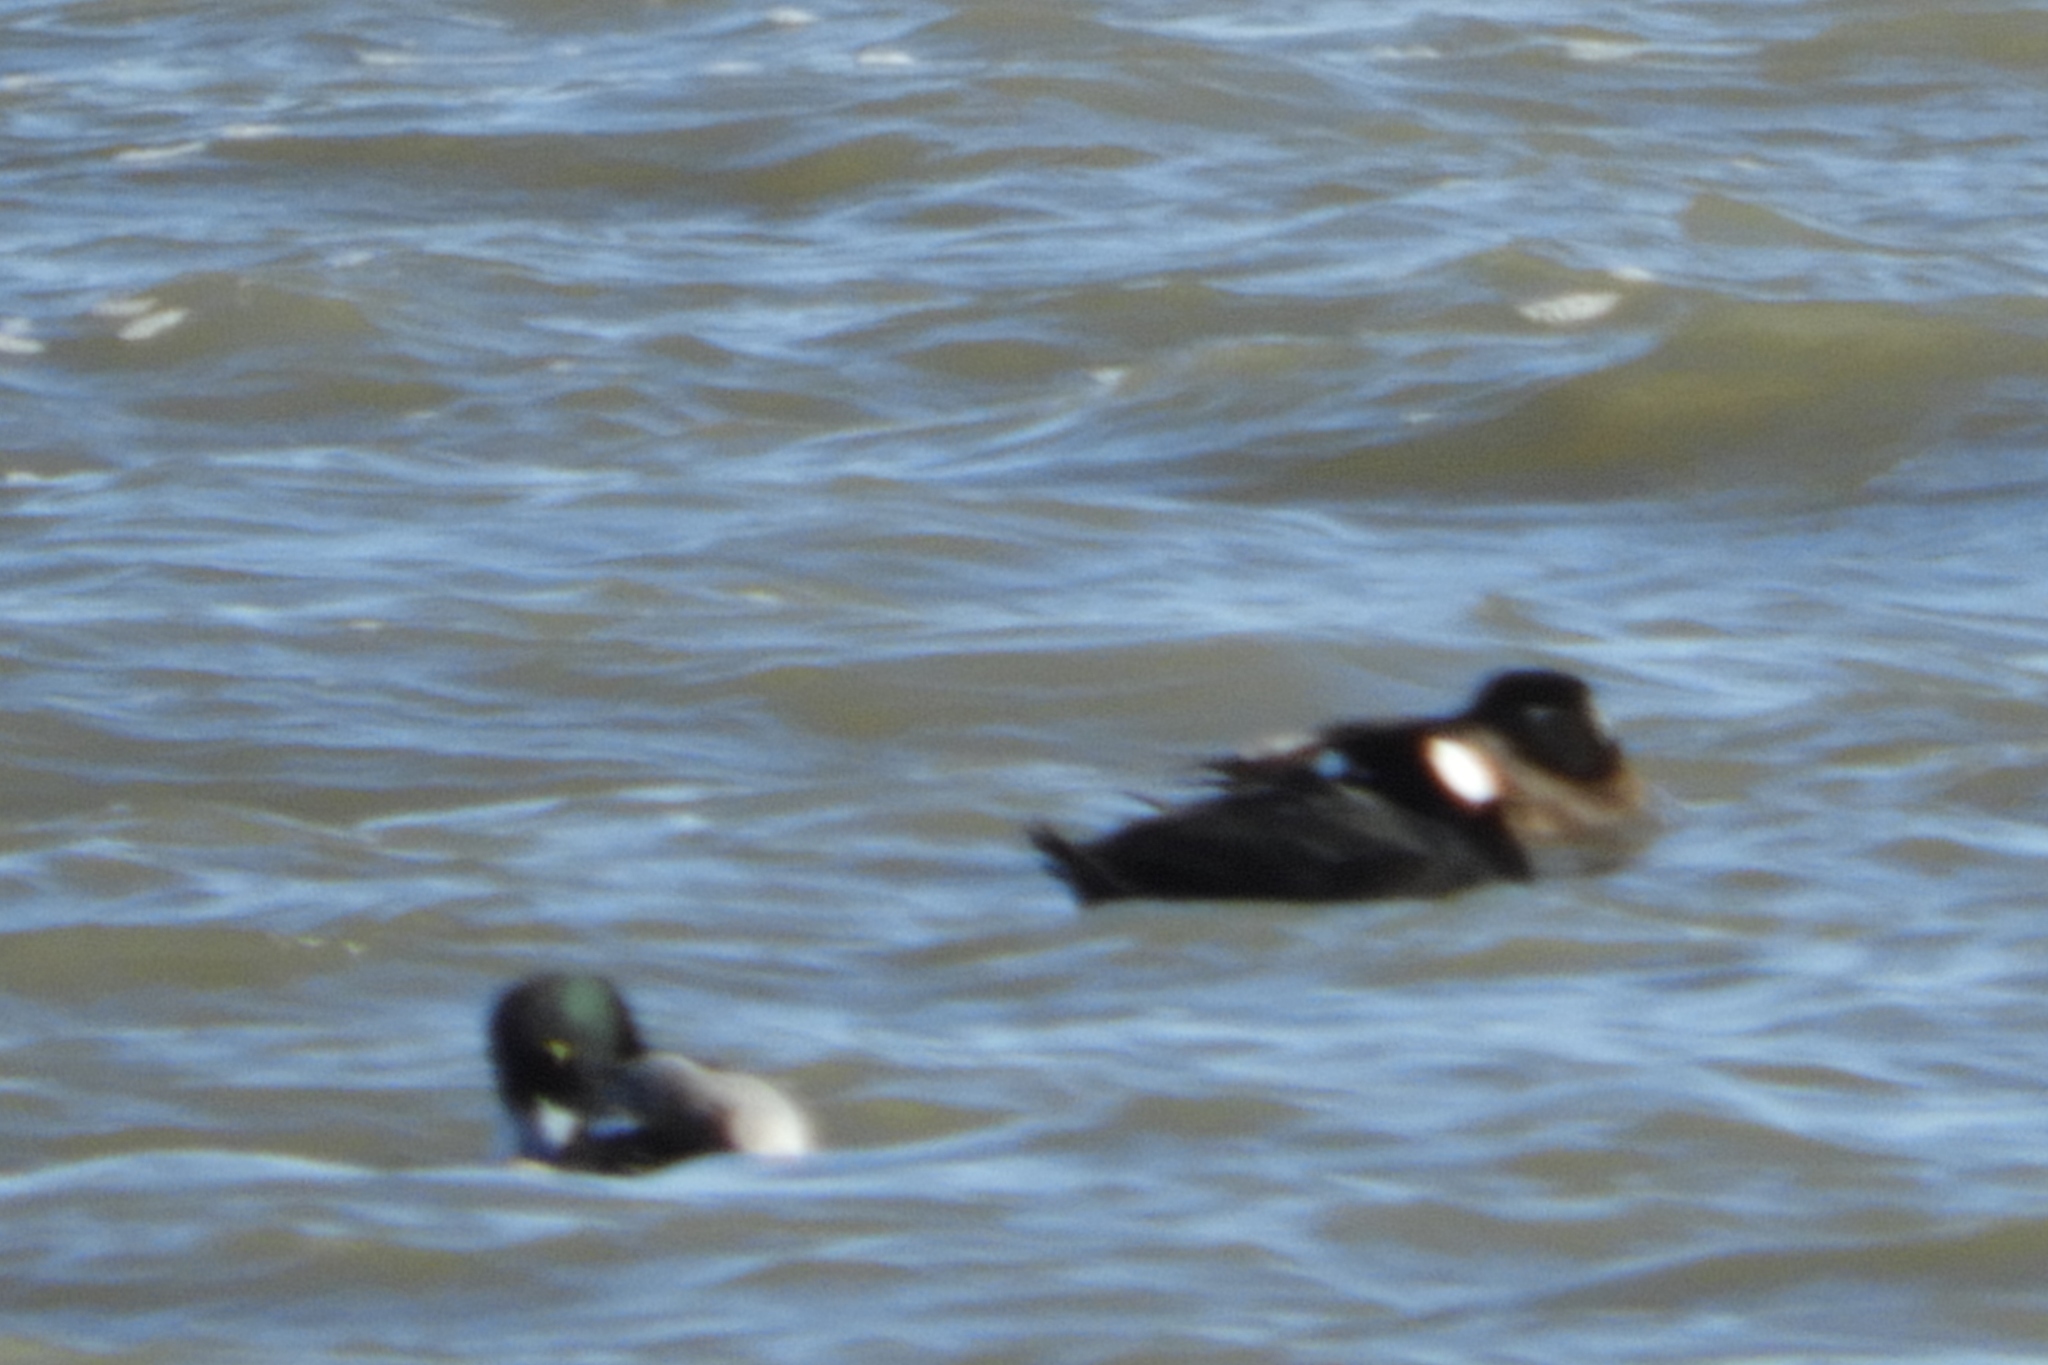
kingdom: Animalia
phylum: Chordata
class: Aves
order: Anseriformes
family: Anatidae
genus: Aythya
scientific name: Aythya marila
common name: Greater scaup
